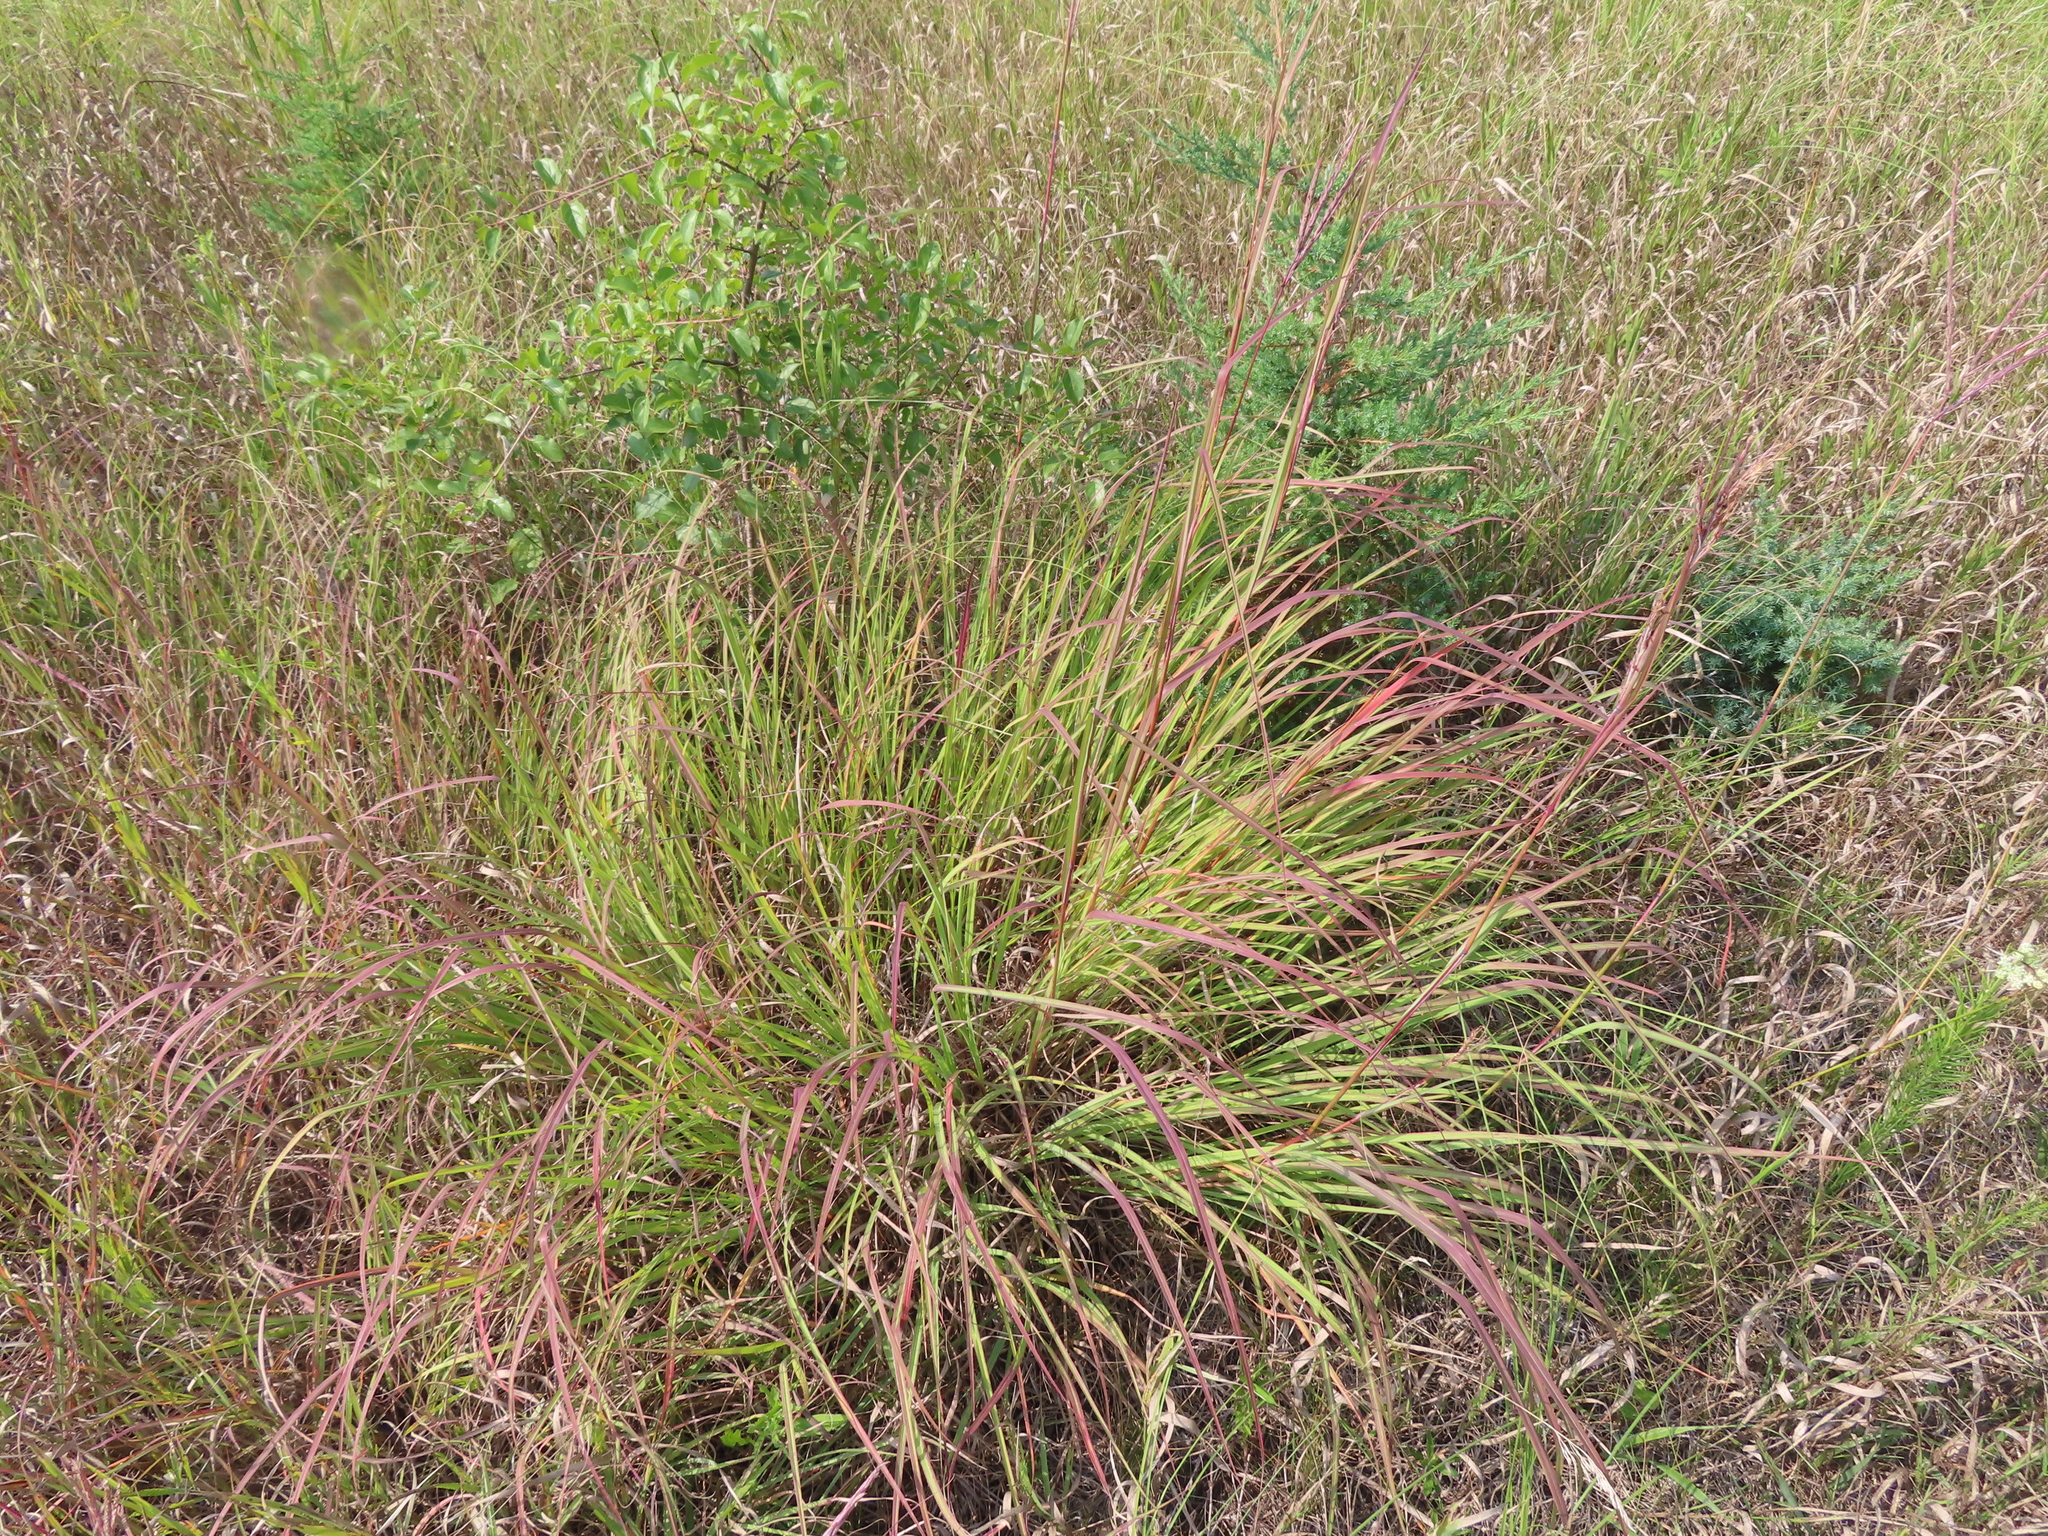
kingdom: Plantae
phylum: Tracheophyta
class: Liliopsida
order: Poales
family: Poaceae
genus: Andropogon
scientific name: Andropogon gerardi
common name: Big bluestem
